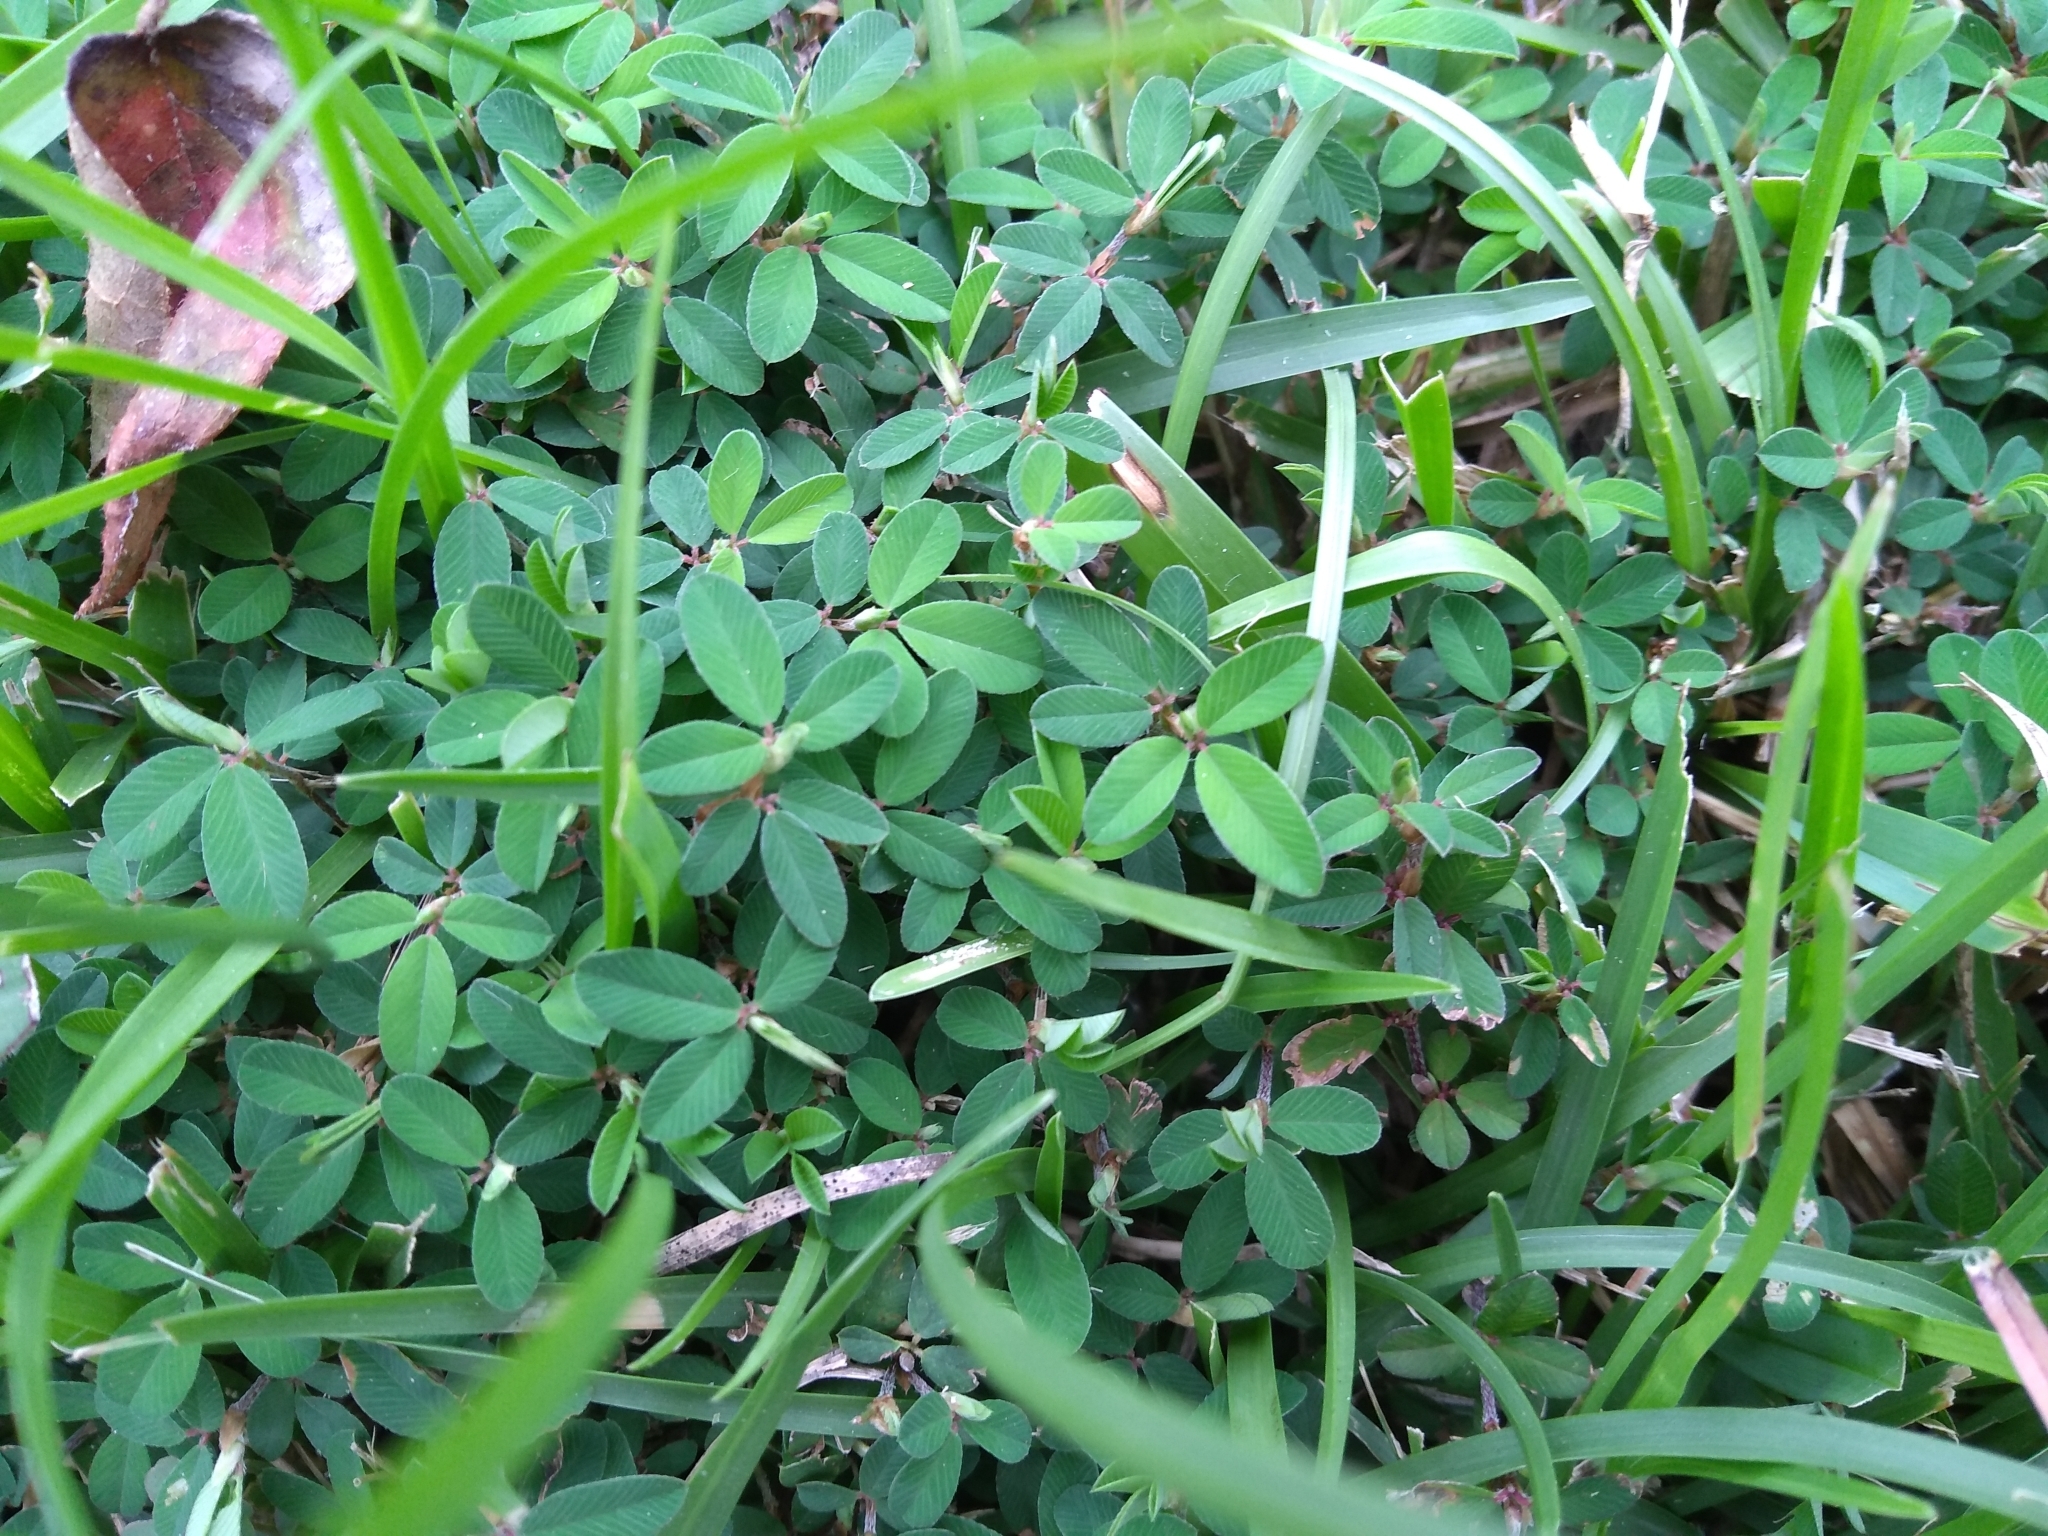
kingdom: Plantae
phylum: Tracheophyta
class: Magnoliopsida
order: Fabales
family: Fabaceae
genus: Kummerowia
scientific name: Kummerowia striata
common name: Japanese clover
